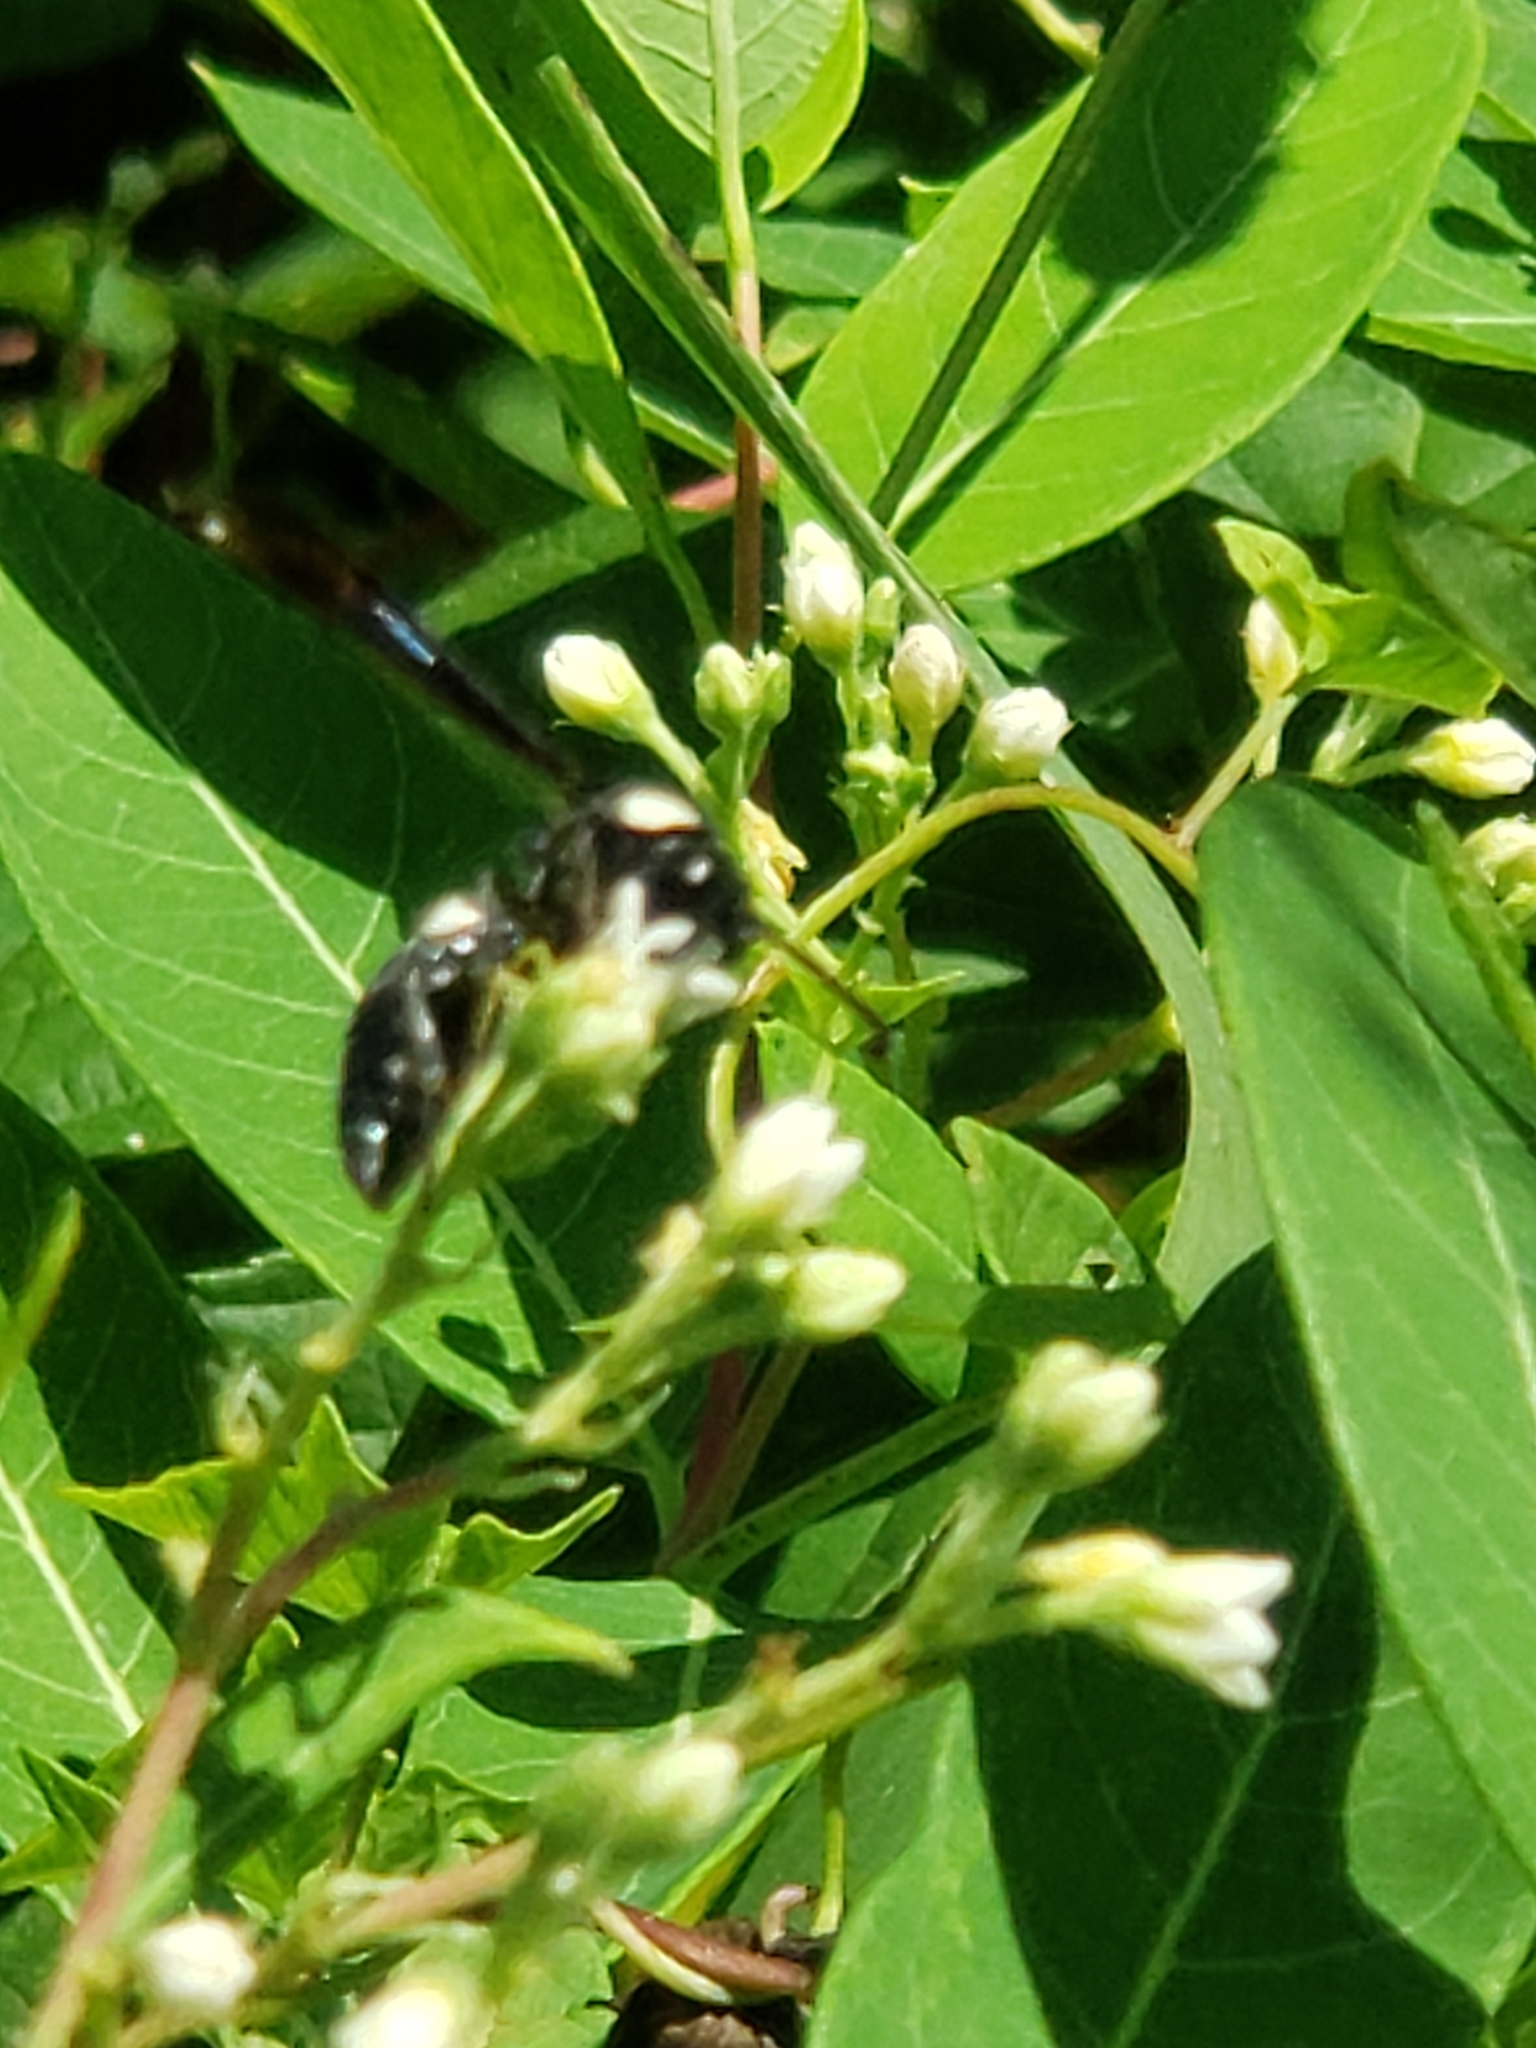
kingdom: Animalia
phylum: Arthropoda
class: Insecta
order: Hymenoptera
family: Eumenidae
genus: Monobia
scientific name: Monobia quadridens
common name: Four-toothed mason wasp
